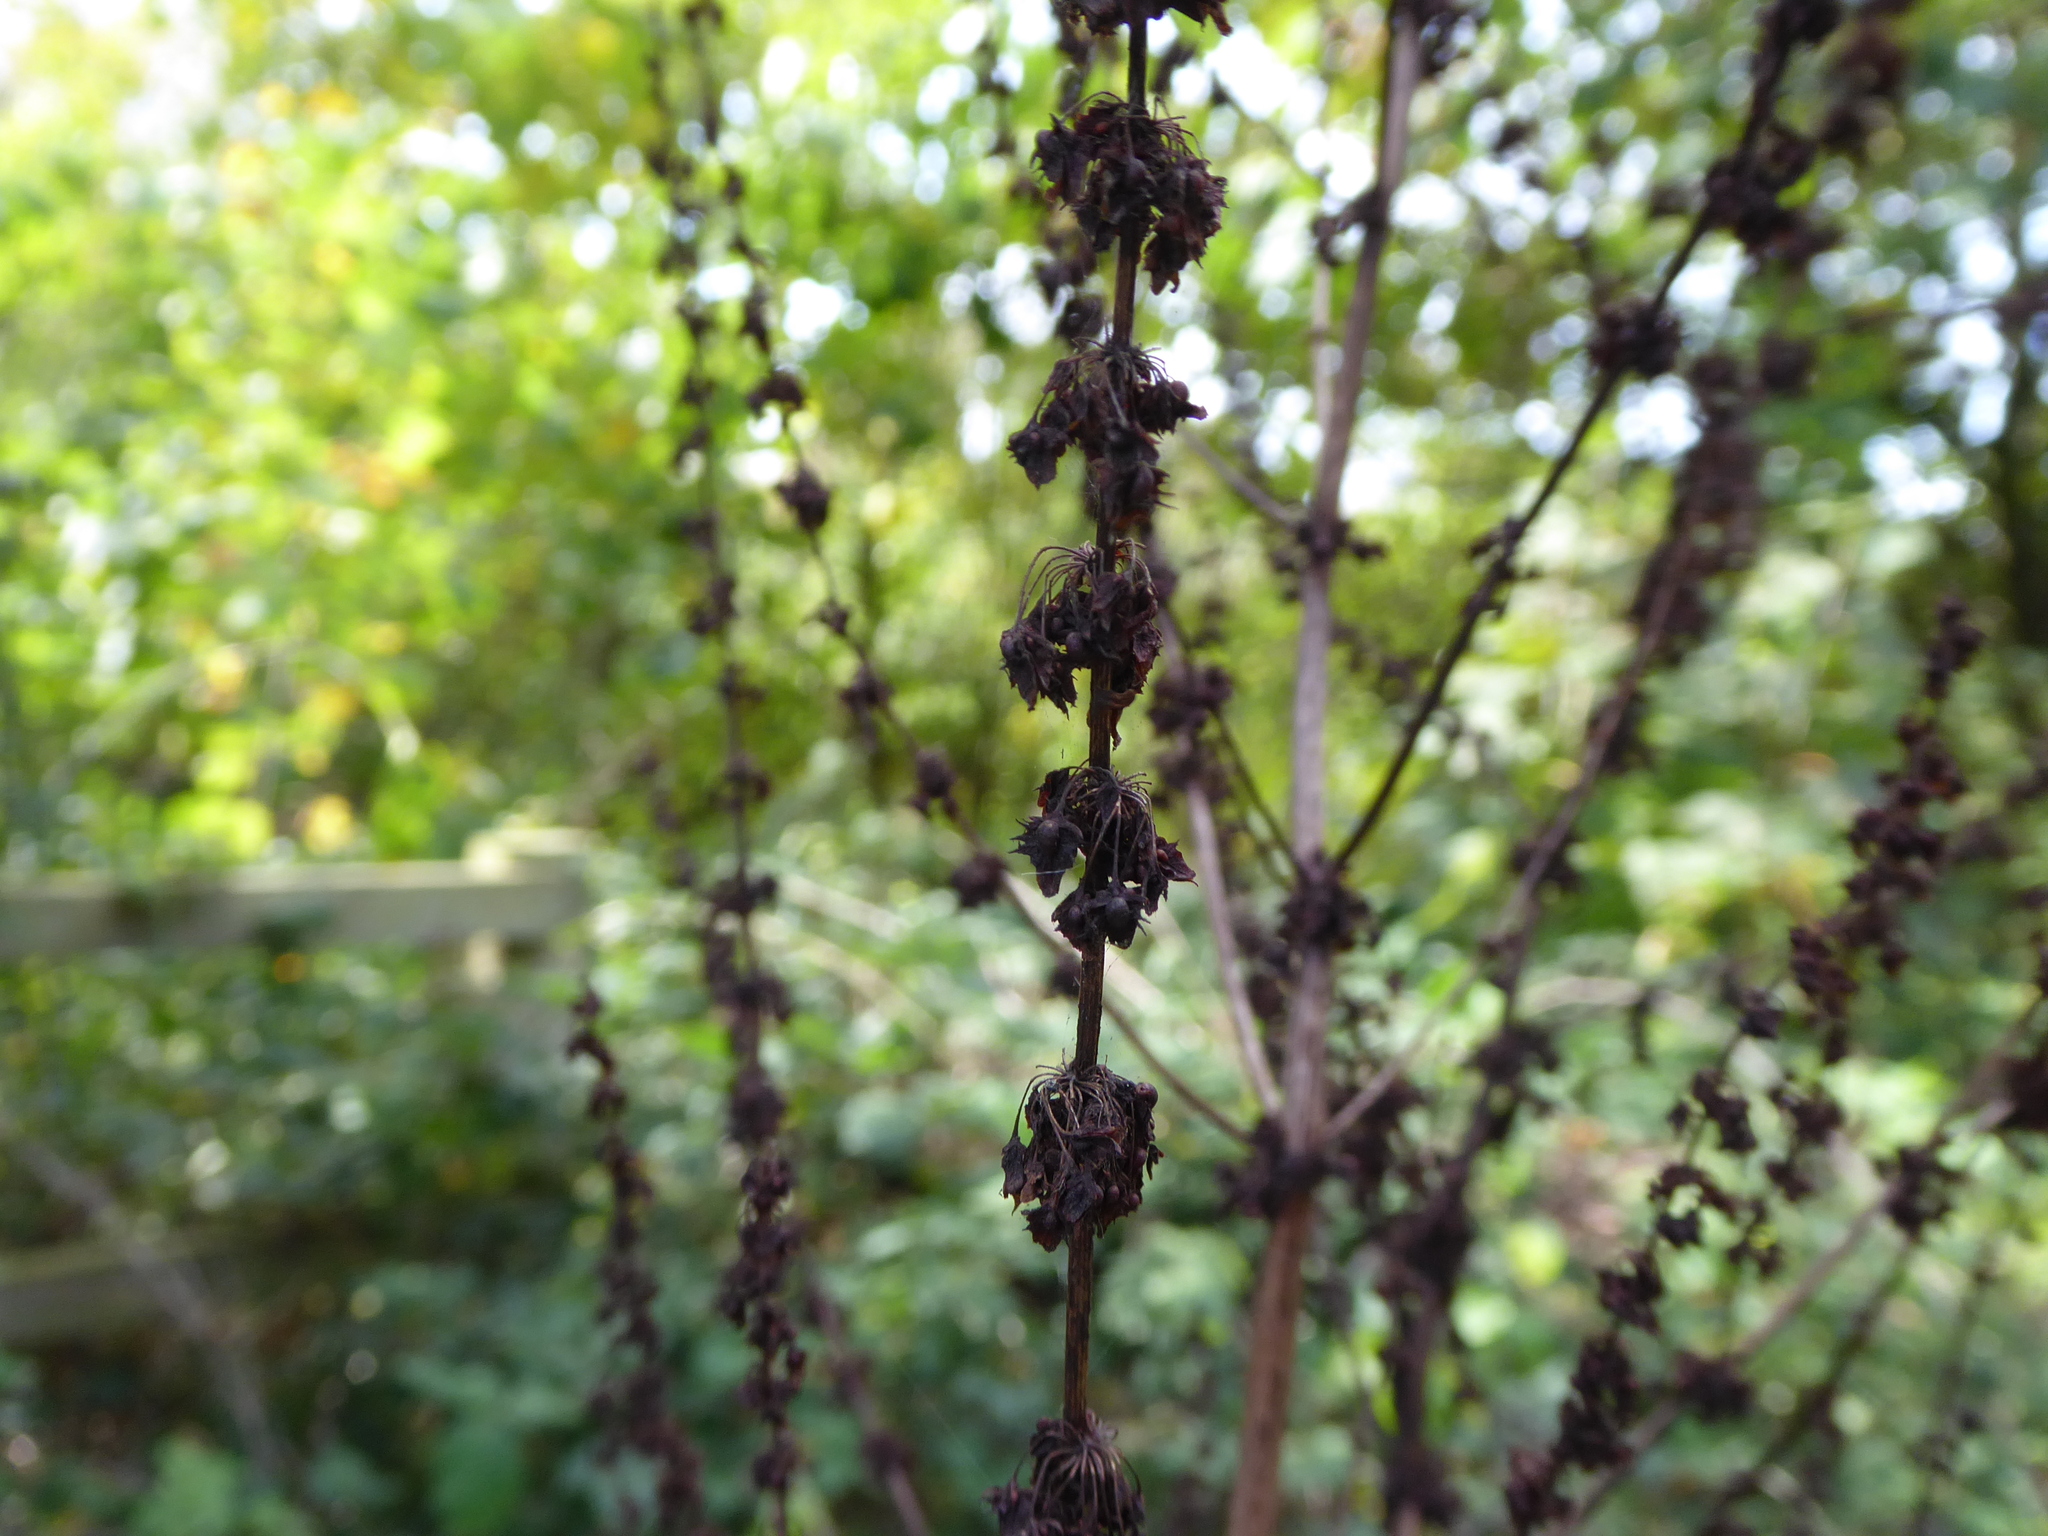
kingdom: Plantae
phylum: Tracheophyta
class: Magnoliopsida
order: Caryophyllales
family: Polygonaceae
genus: Rumex
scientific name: Rumex obtusifolius
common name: Bitter dock
